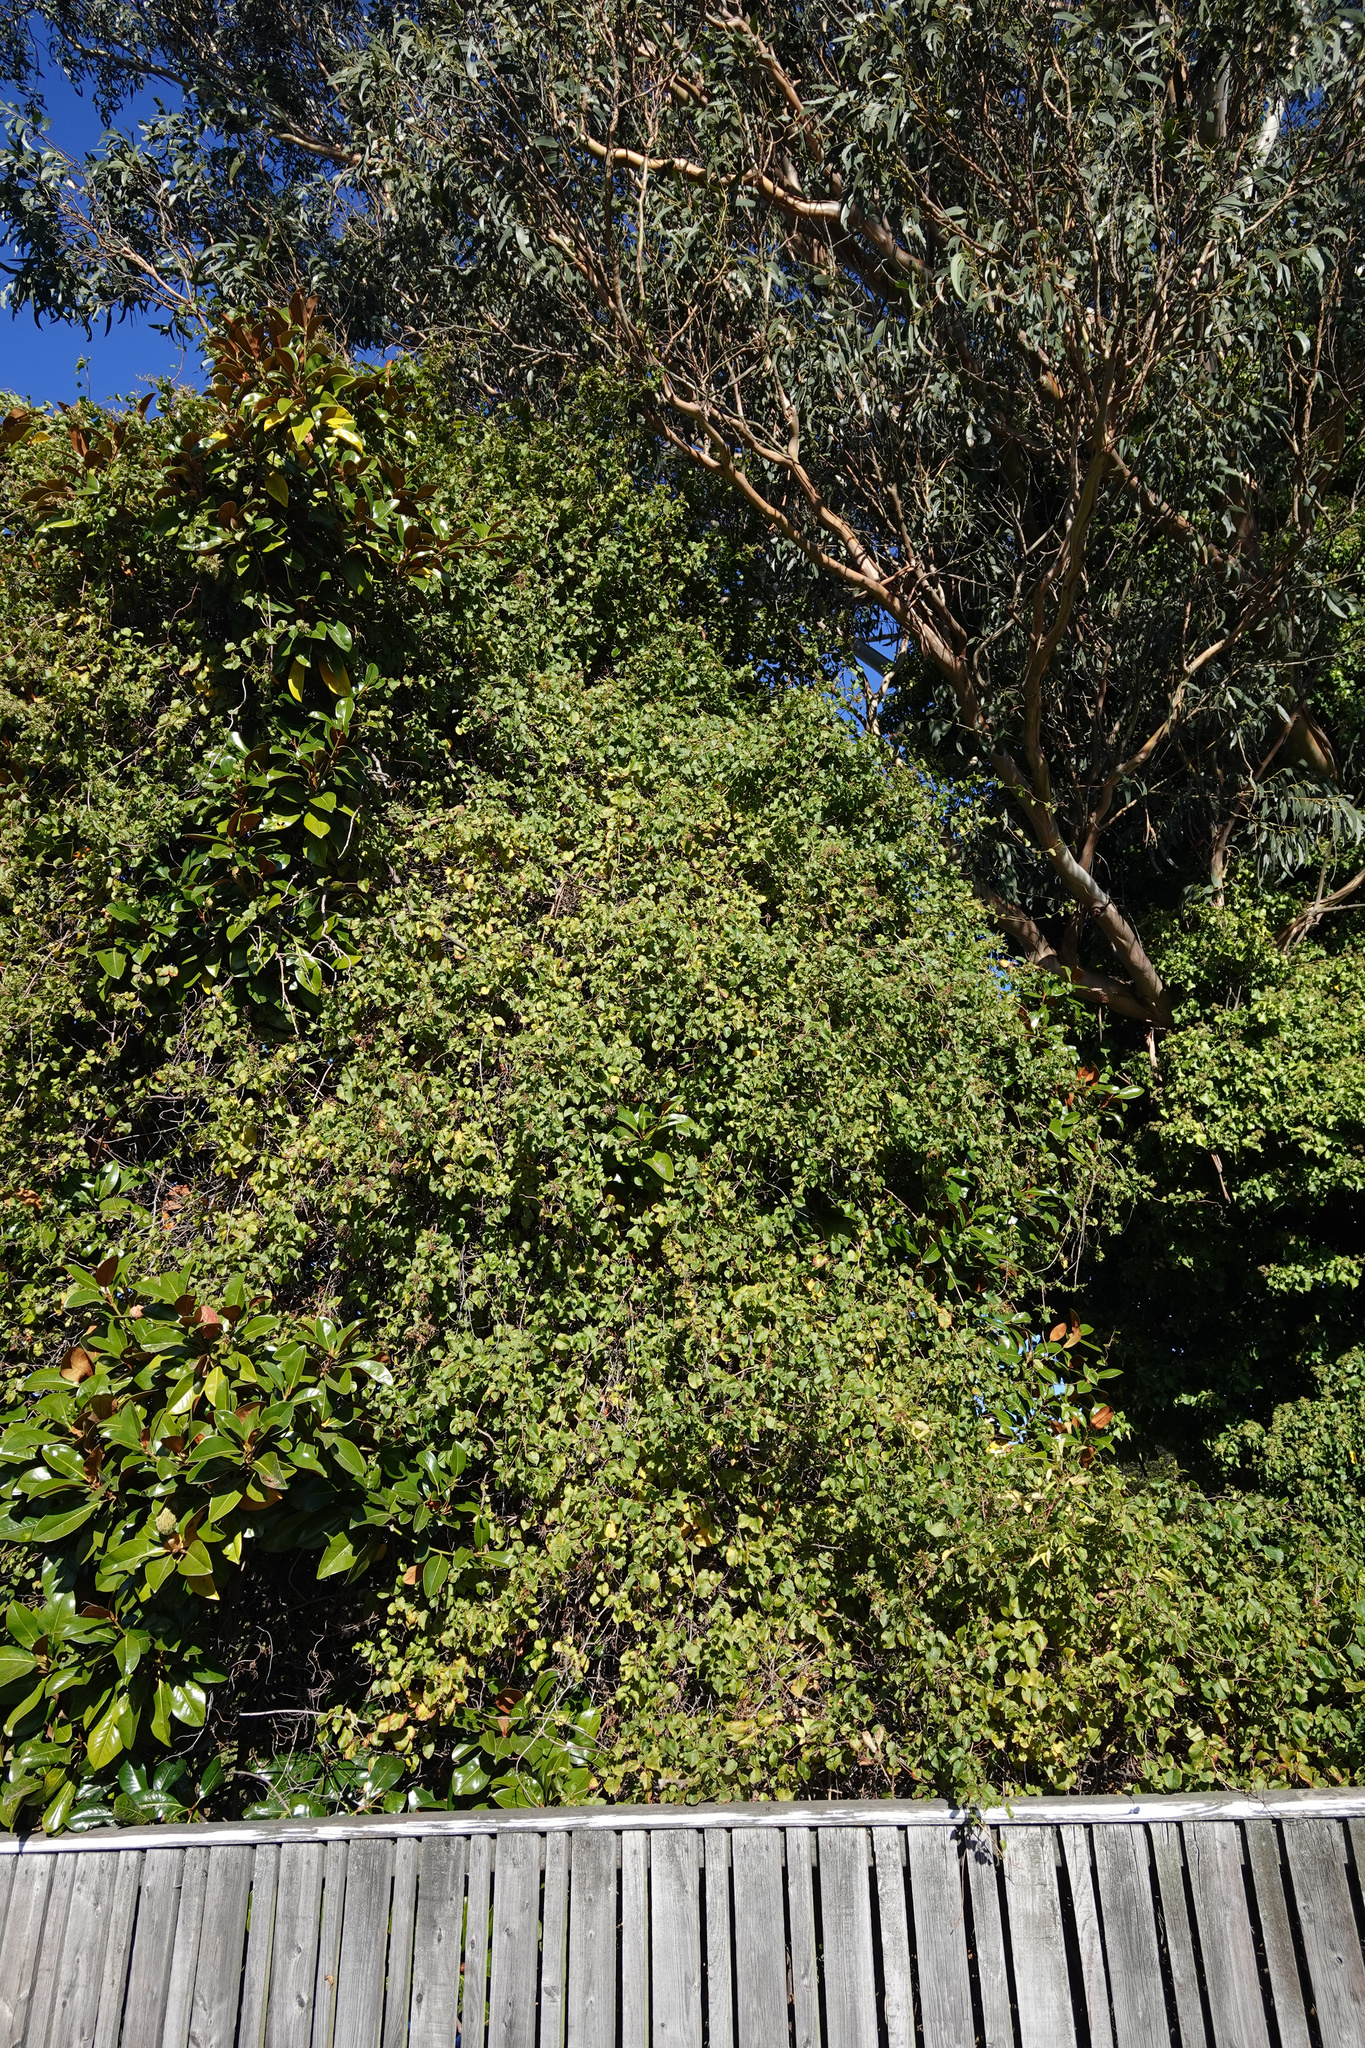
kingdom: Plantae
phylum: Tracheophyta
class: Magnoliopsida
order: Caryophyllales
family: Polygonaceae
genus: Muehlenbeckia
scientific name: Muehlenbeckia australis
